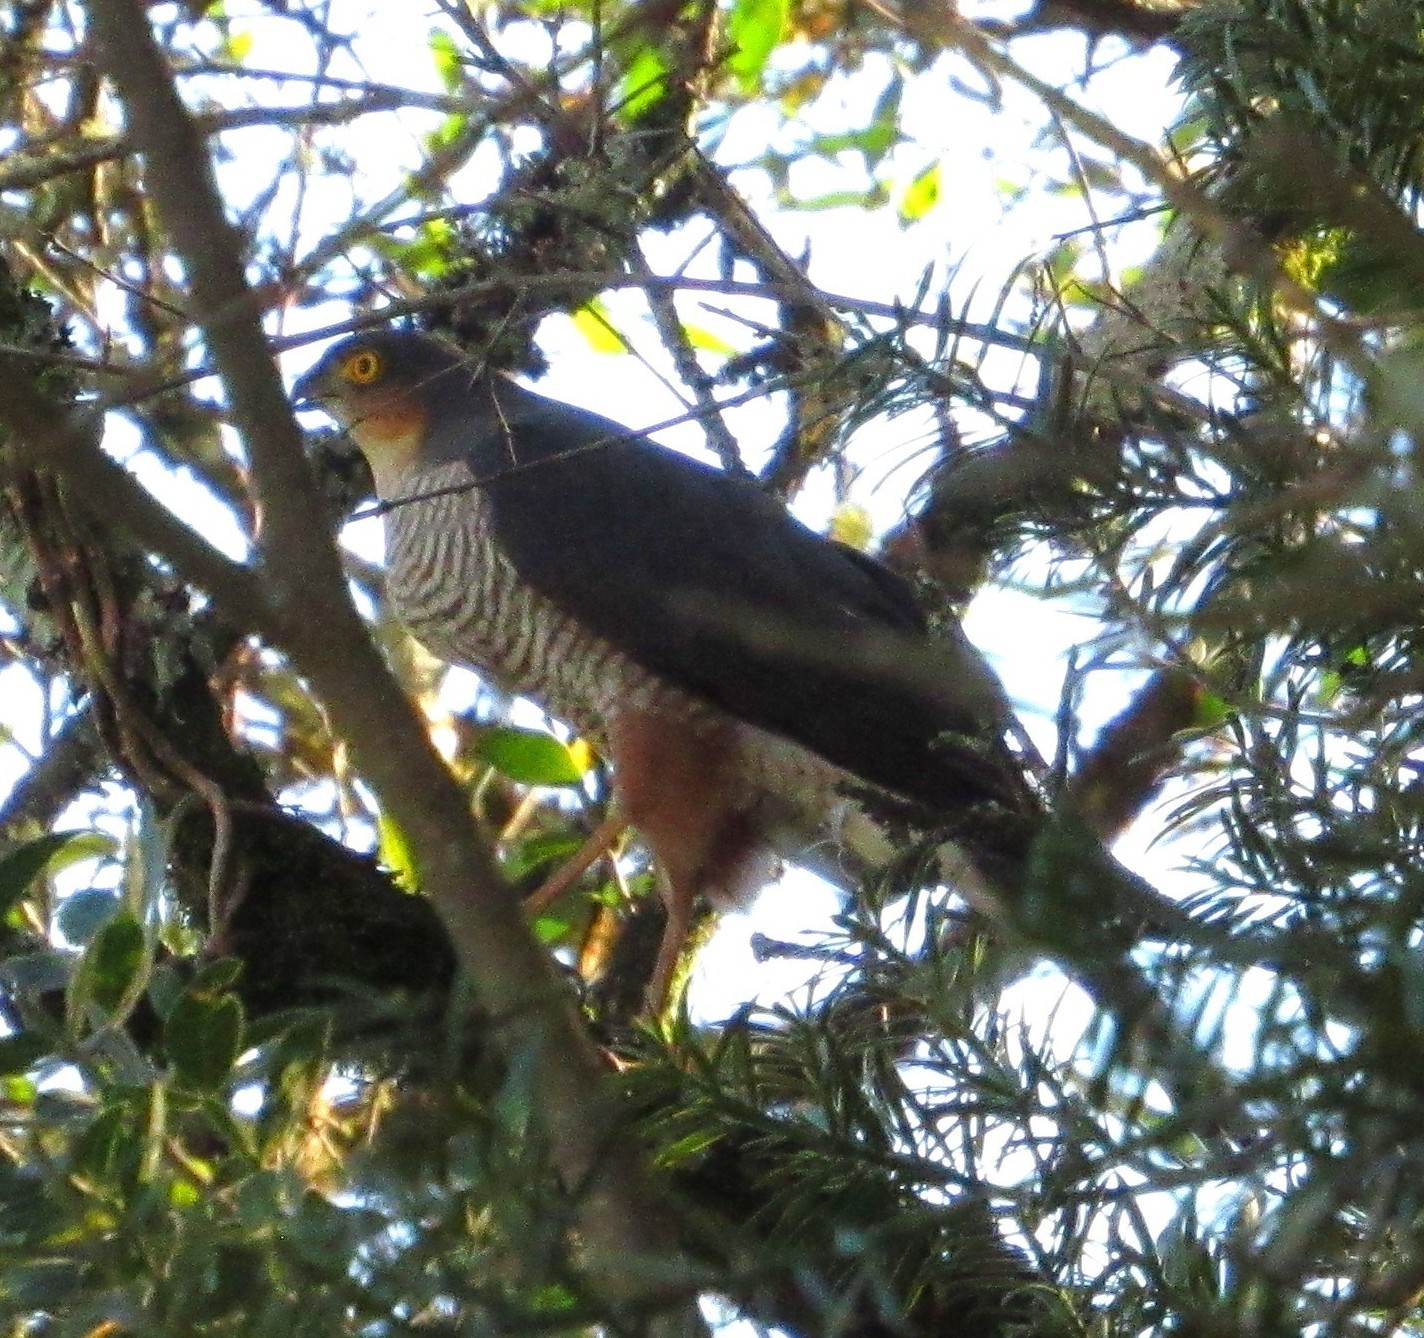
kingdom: Animalia
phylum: Chordata
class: Aves
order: Accipitriformes
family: Accipitridae
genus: Accipiter
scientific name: Accipiter striatus
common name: Sharp-shinned hawk
